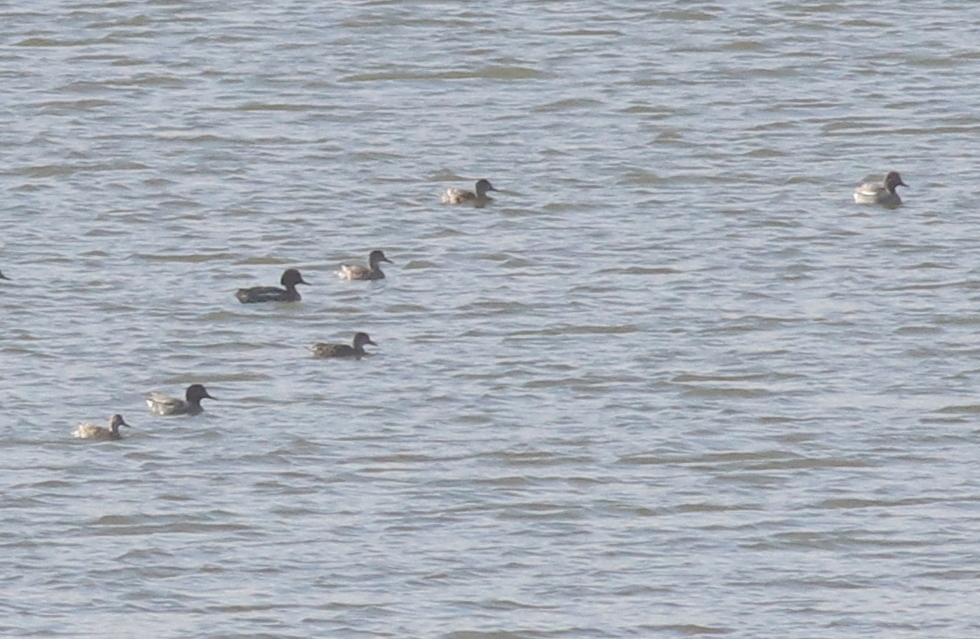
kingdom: Animalia
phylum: Chordata
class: Aves
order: Anseriformes
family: Anatidae
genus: Anas
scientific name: Anas crecca
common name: Eurasian teal
